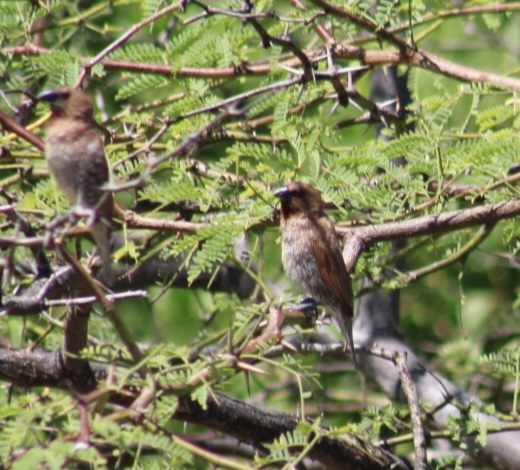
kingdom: Animalia
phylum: Chordata
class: Aves
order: Passeriformes
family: Estrildidae
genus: Lonchura
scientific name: Lonchura punctulata
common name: Scaly-breasted munia
